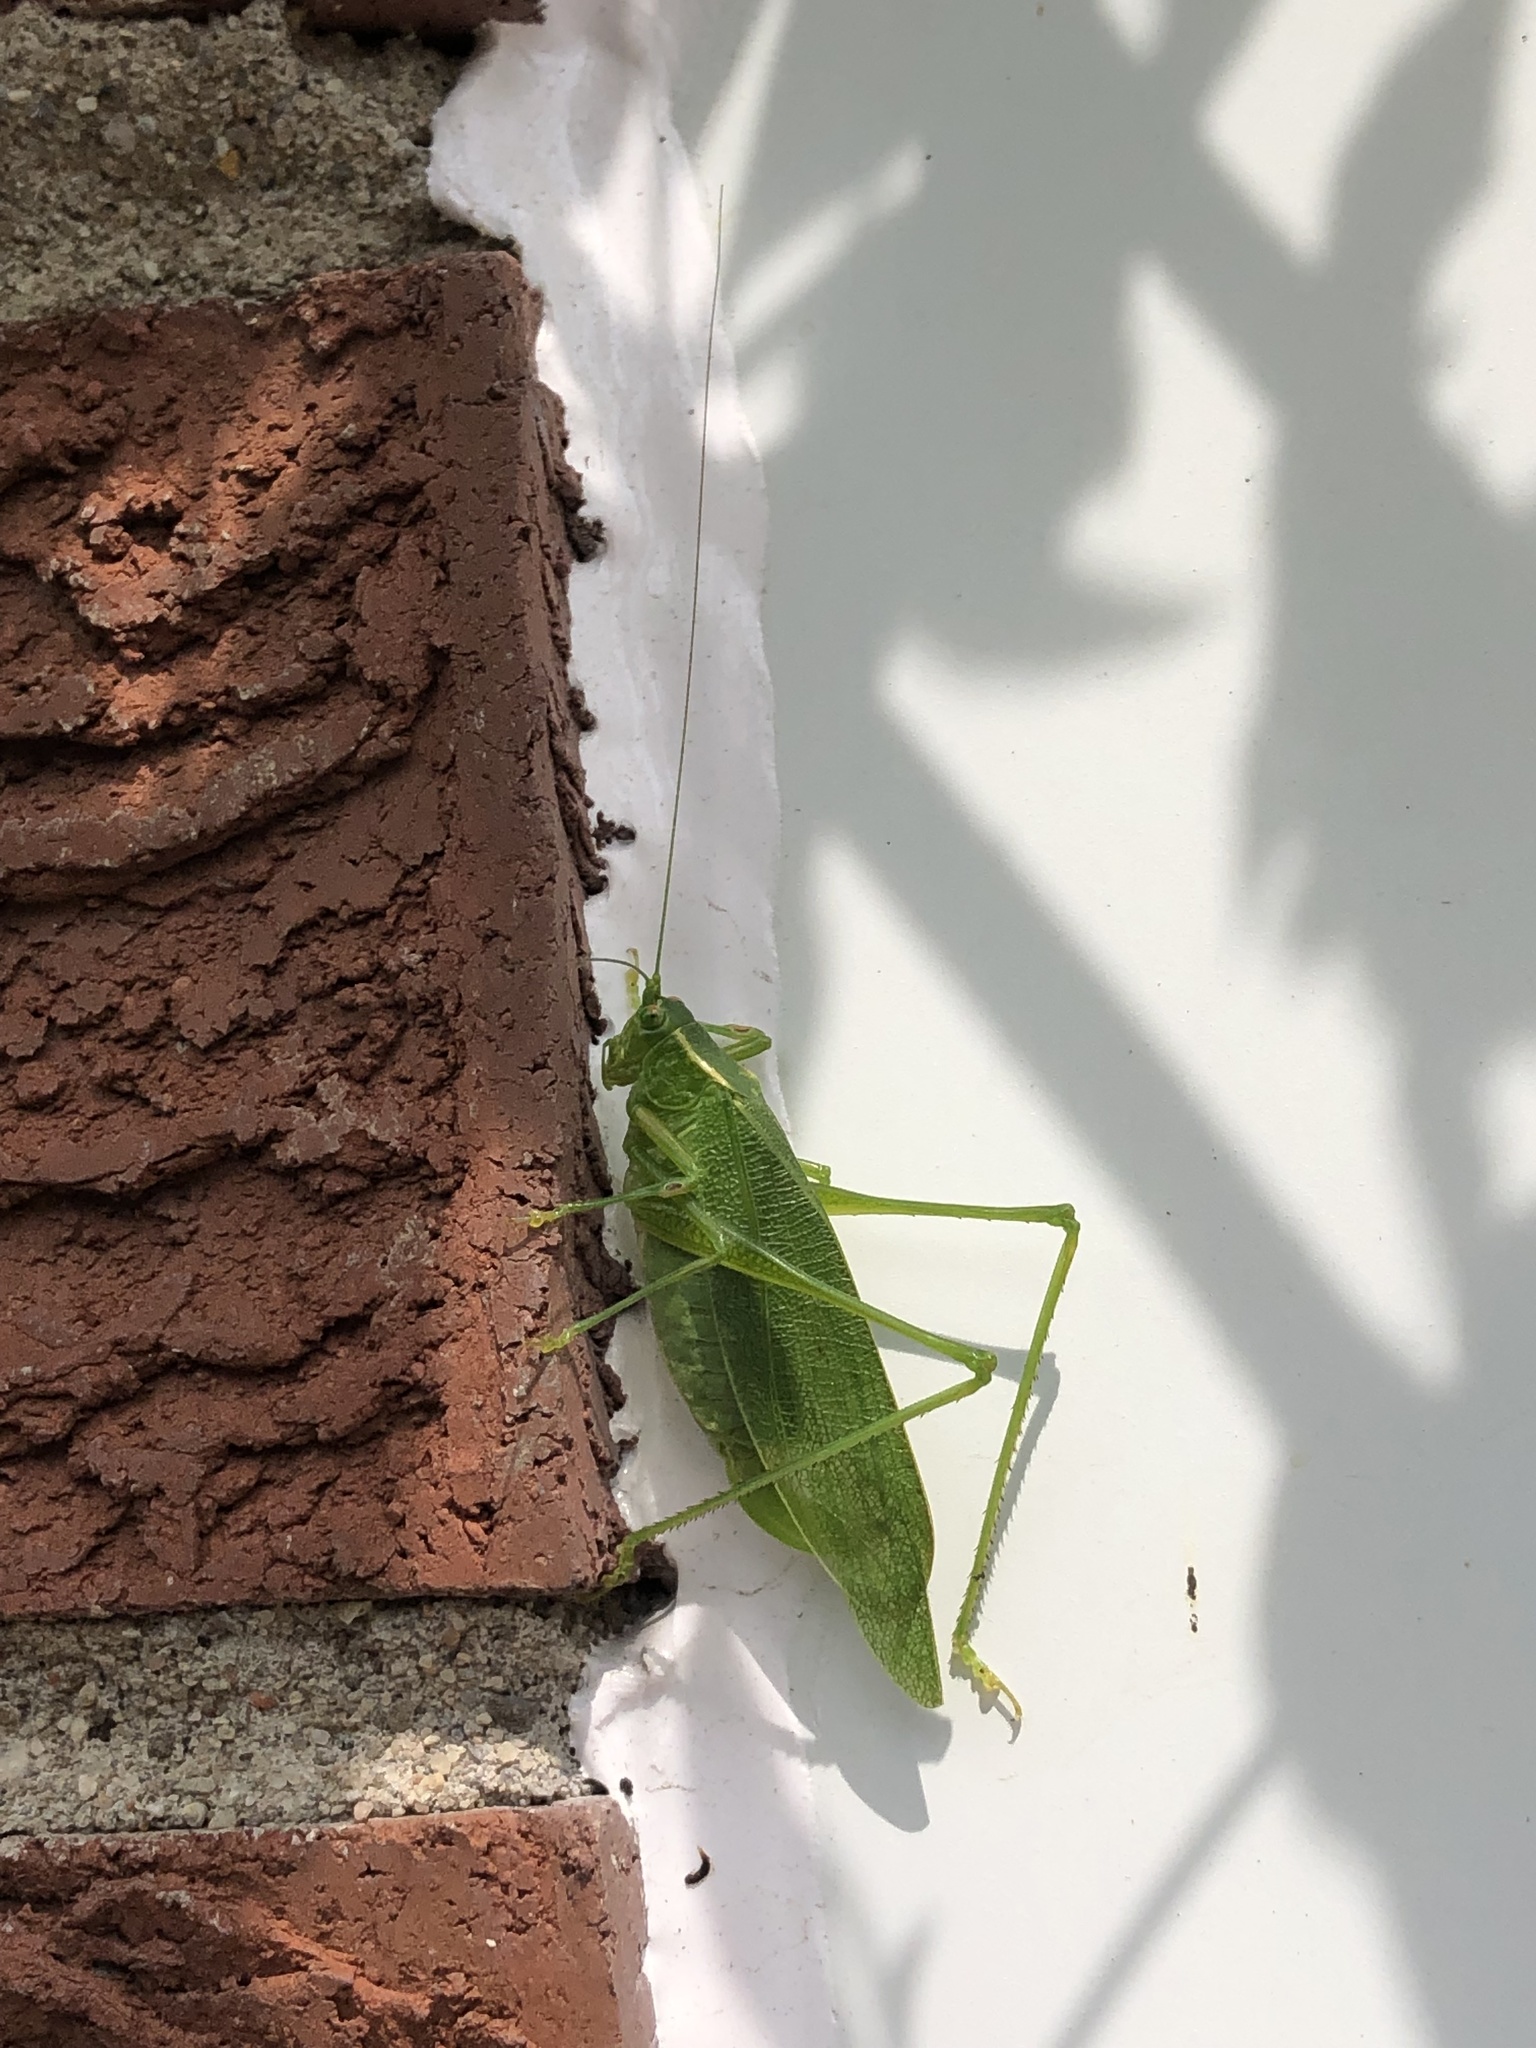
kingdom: Animalia
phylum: Arthropoda
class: Insecta
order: Orthoptera
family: Tettigoniidae
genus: Scudderia
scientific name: Scudderia septentrionalis
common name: Northern bush-katydid
